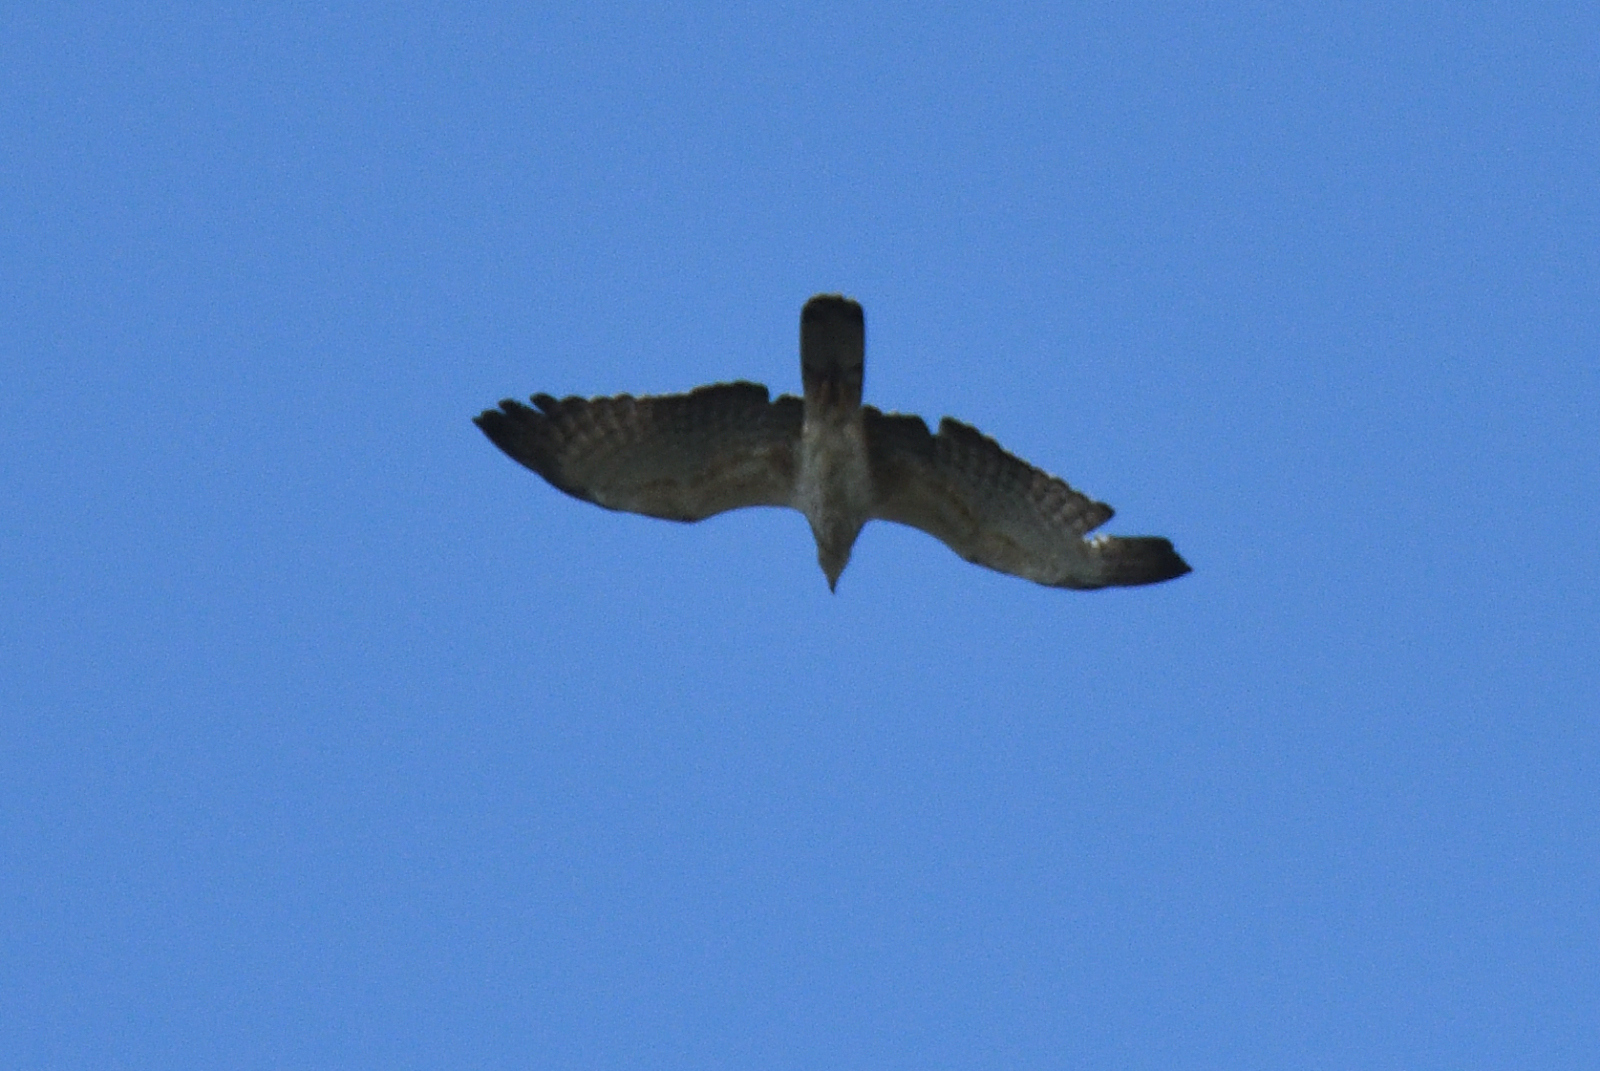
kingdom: Animalia
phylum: Chordata
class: Aves
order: Accipitriformes
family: Accipitridae
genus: Pernis
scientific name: Pernis ptilorhynchus
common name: Crested honey buzzard
